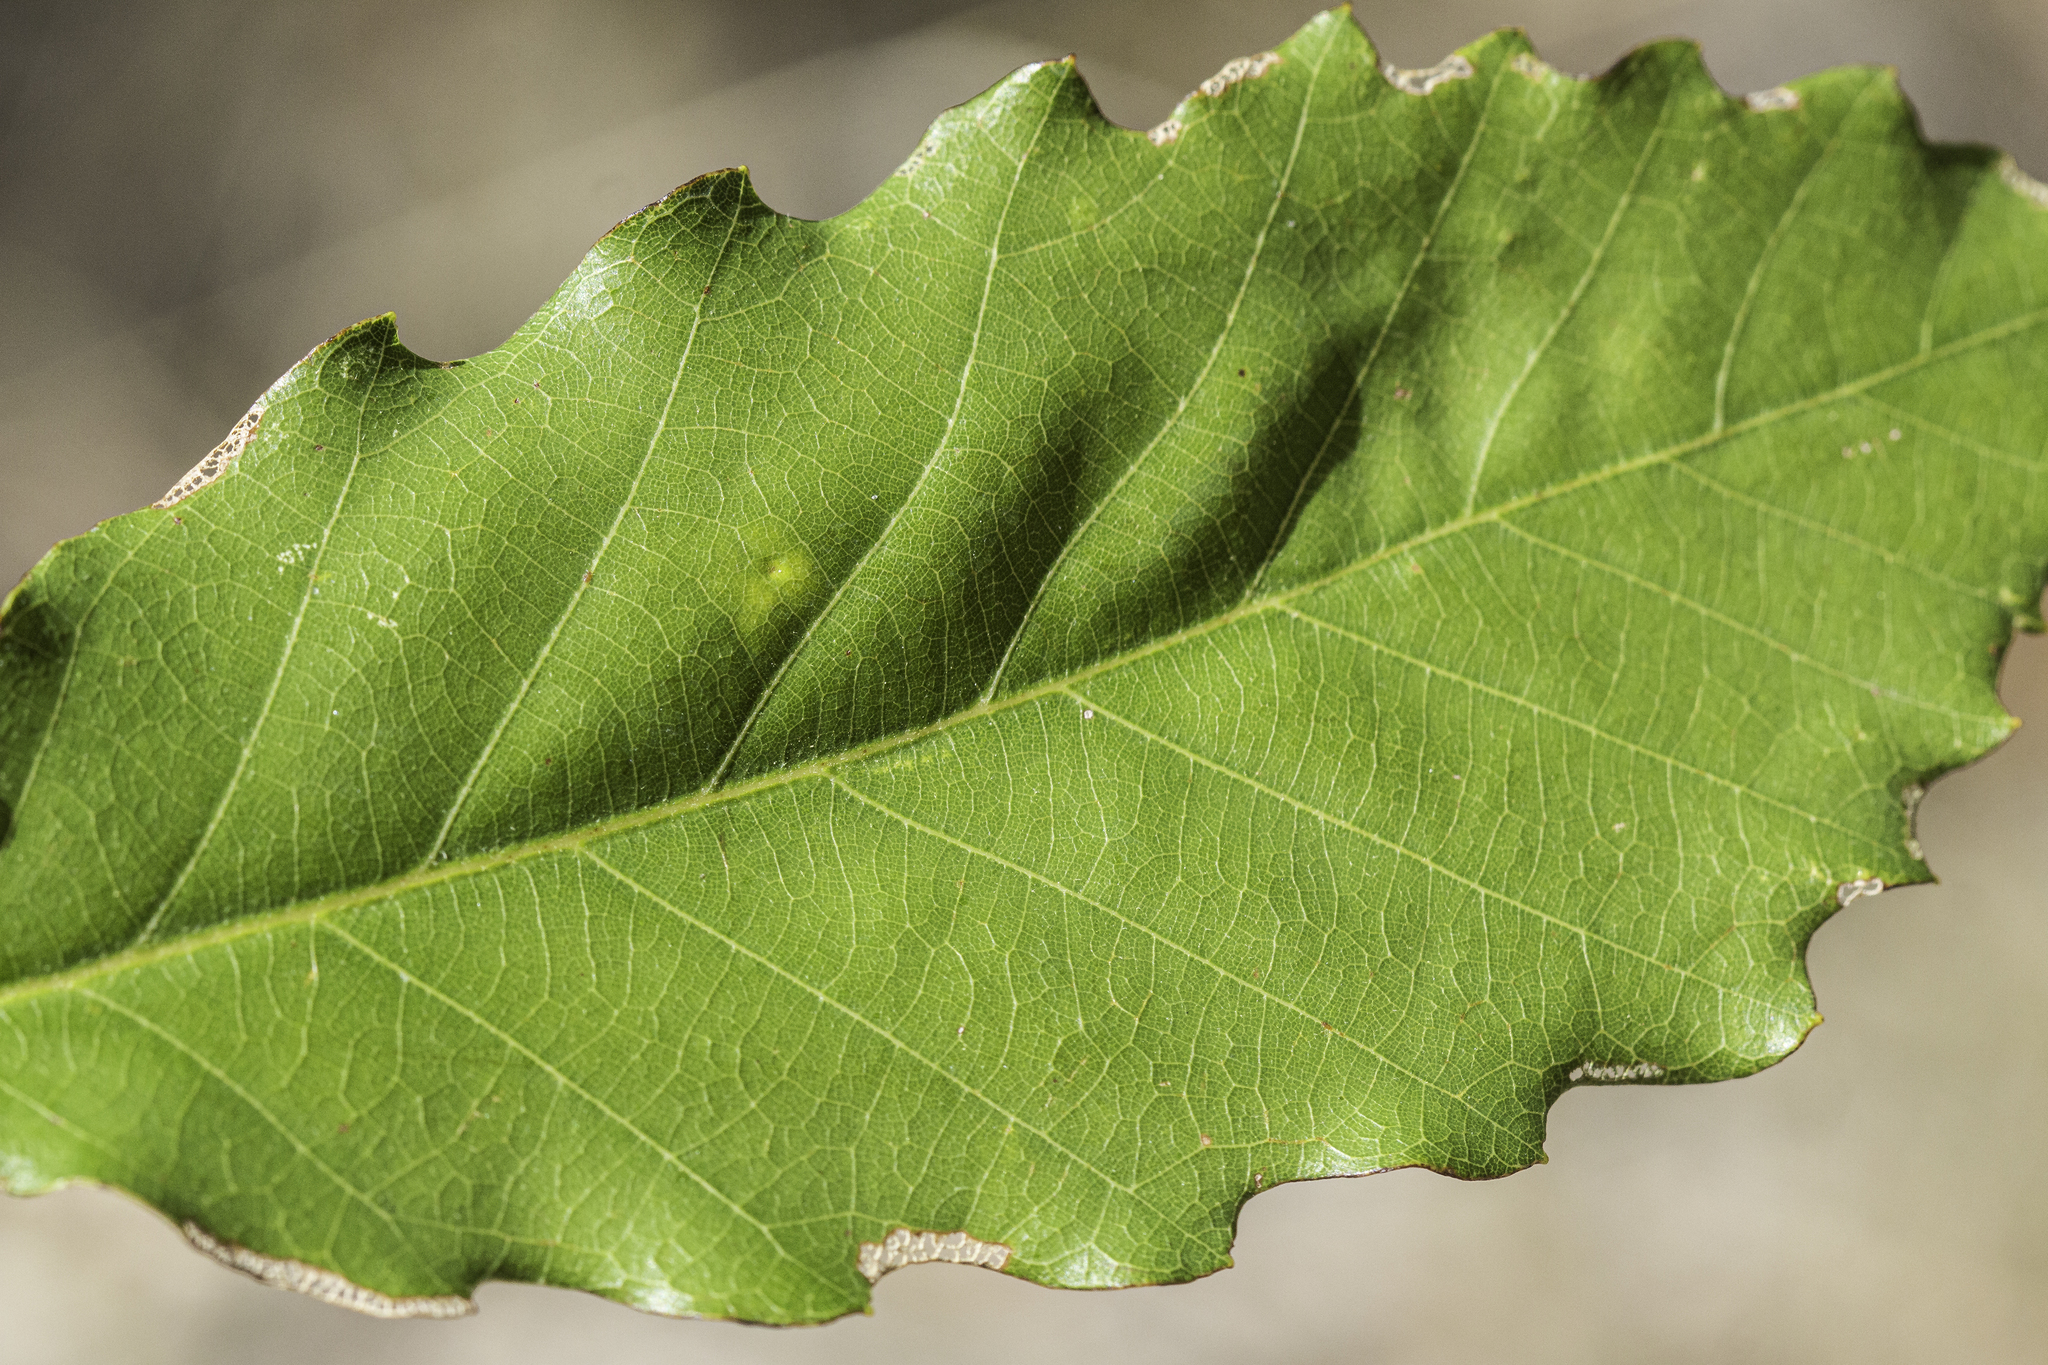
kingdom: Plantae
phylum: Tracheophyta
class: Magnoliopsida
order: Fagales
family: Fagaceae
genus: Quercus
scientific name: Quercus muehlenbergii
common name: Chinkapin oak
